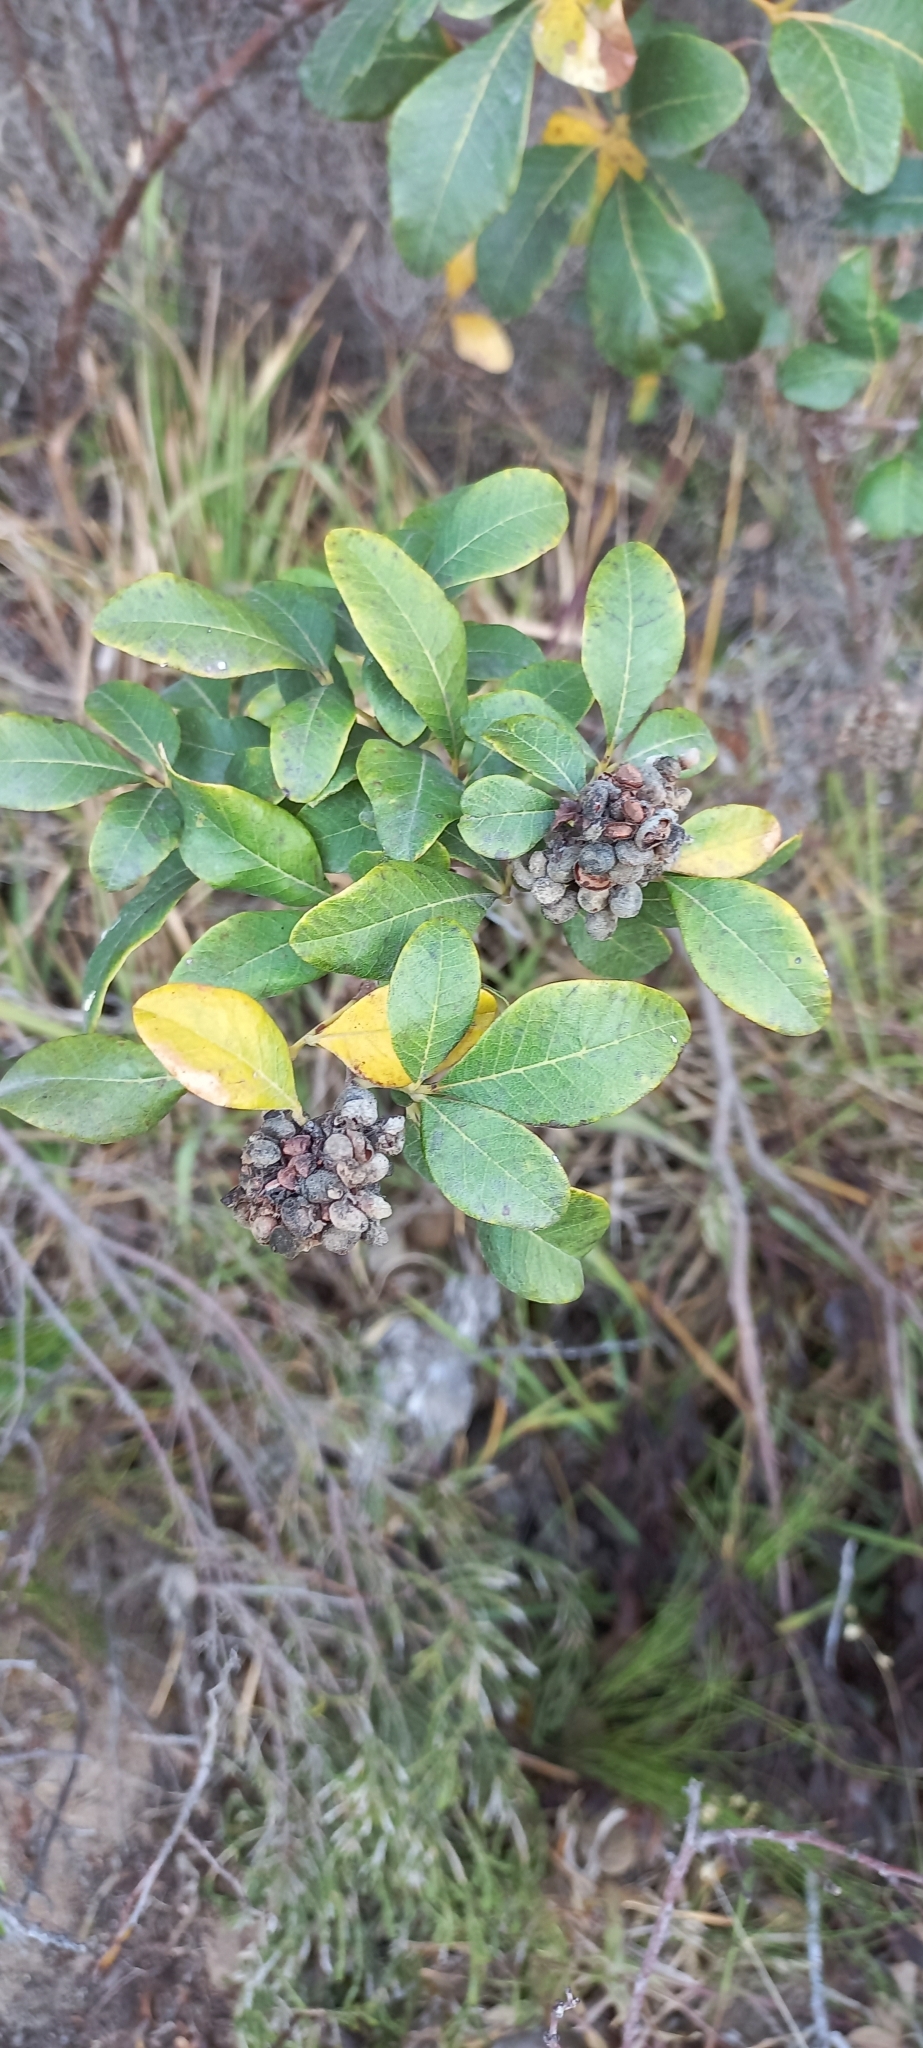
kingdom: Plantae
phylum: Tracheophyta
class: Magnoliopsida
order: Sapindales
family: Anacardiaceae
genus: Searsia
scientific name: Searsia tomentosa
